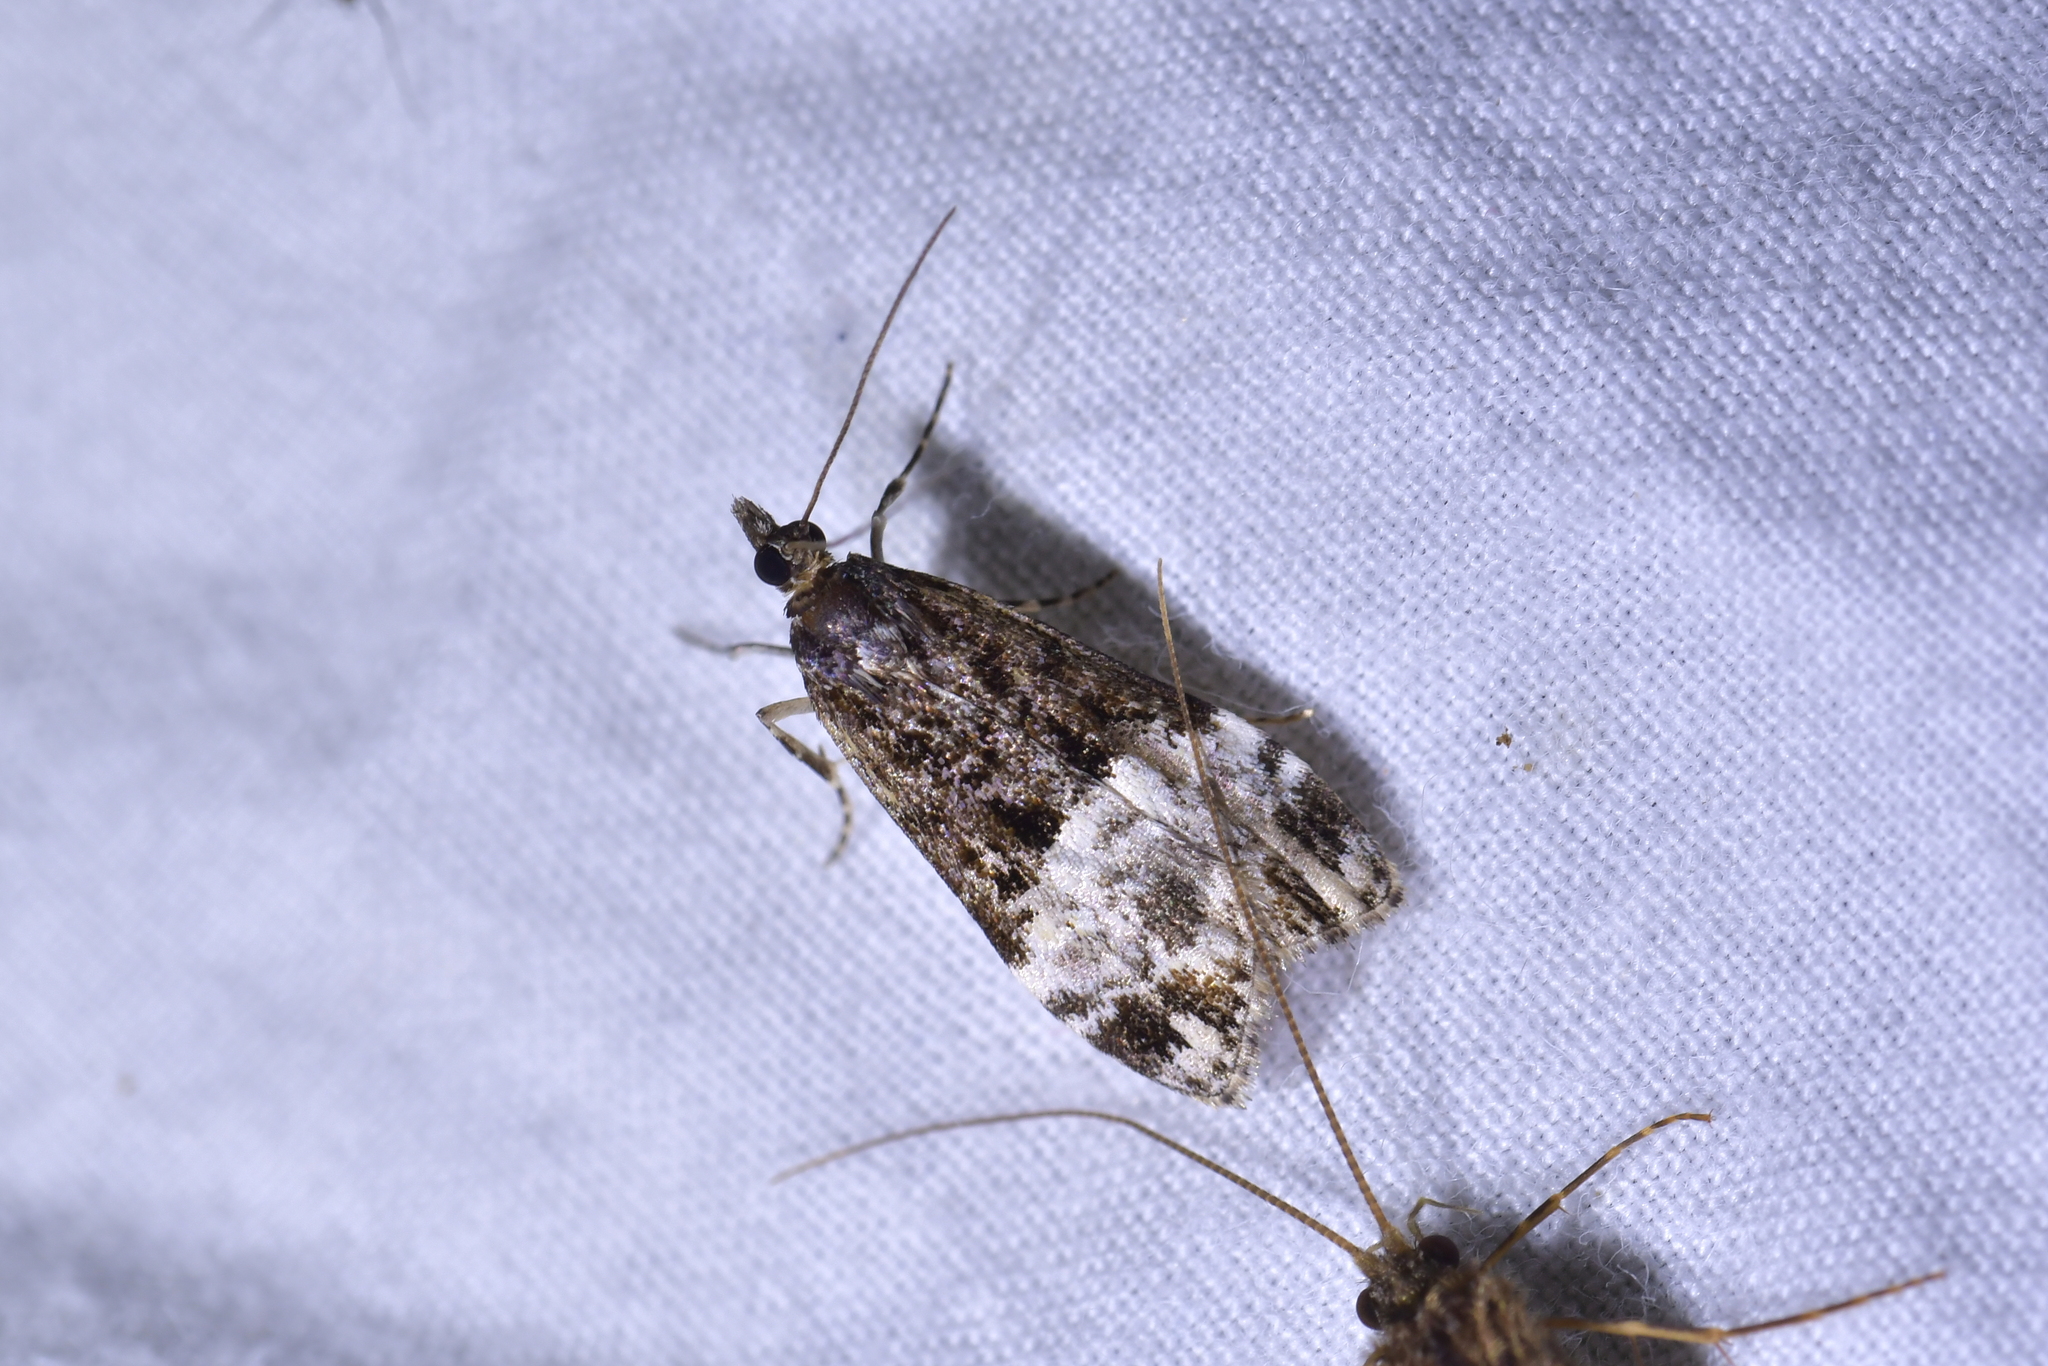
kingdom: Animalia
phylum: Arthropoda
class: Insecta
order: Lepidoptera
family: Crambidae
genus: Scoparia
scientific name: Scoparia minusculalis
